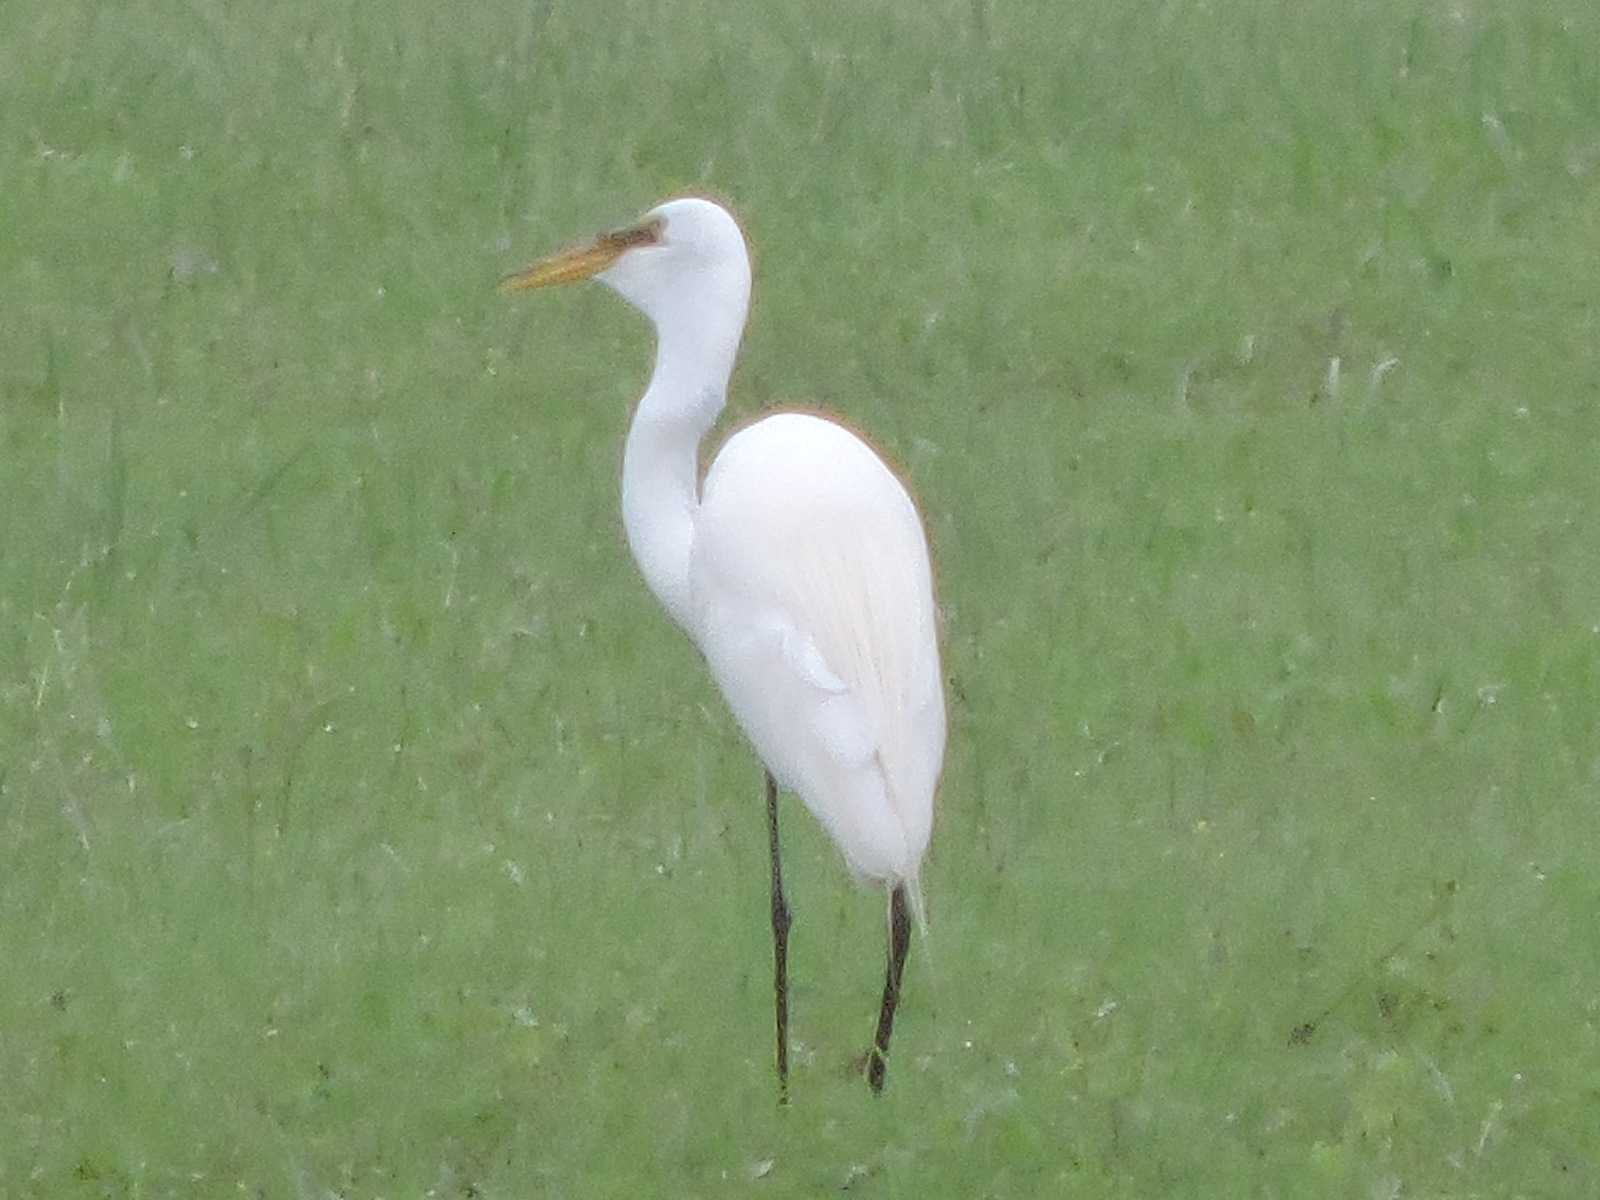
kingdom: Animalia
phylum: Chordata
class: Aves
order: Pelecaniformes
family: Ardeidae
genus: Ardea
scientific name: Ardea alba
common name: Great egret
